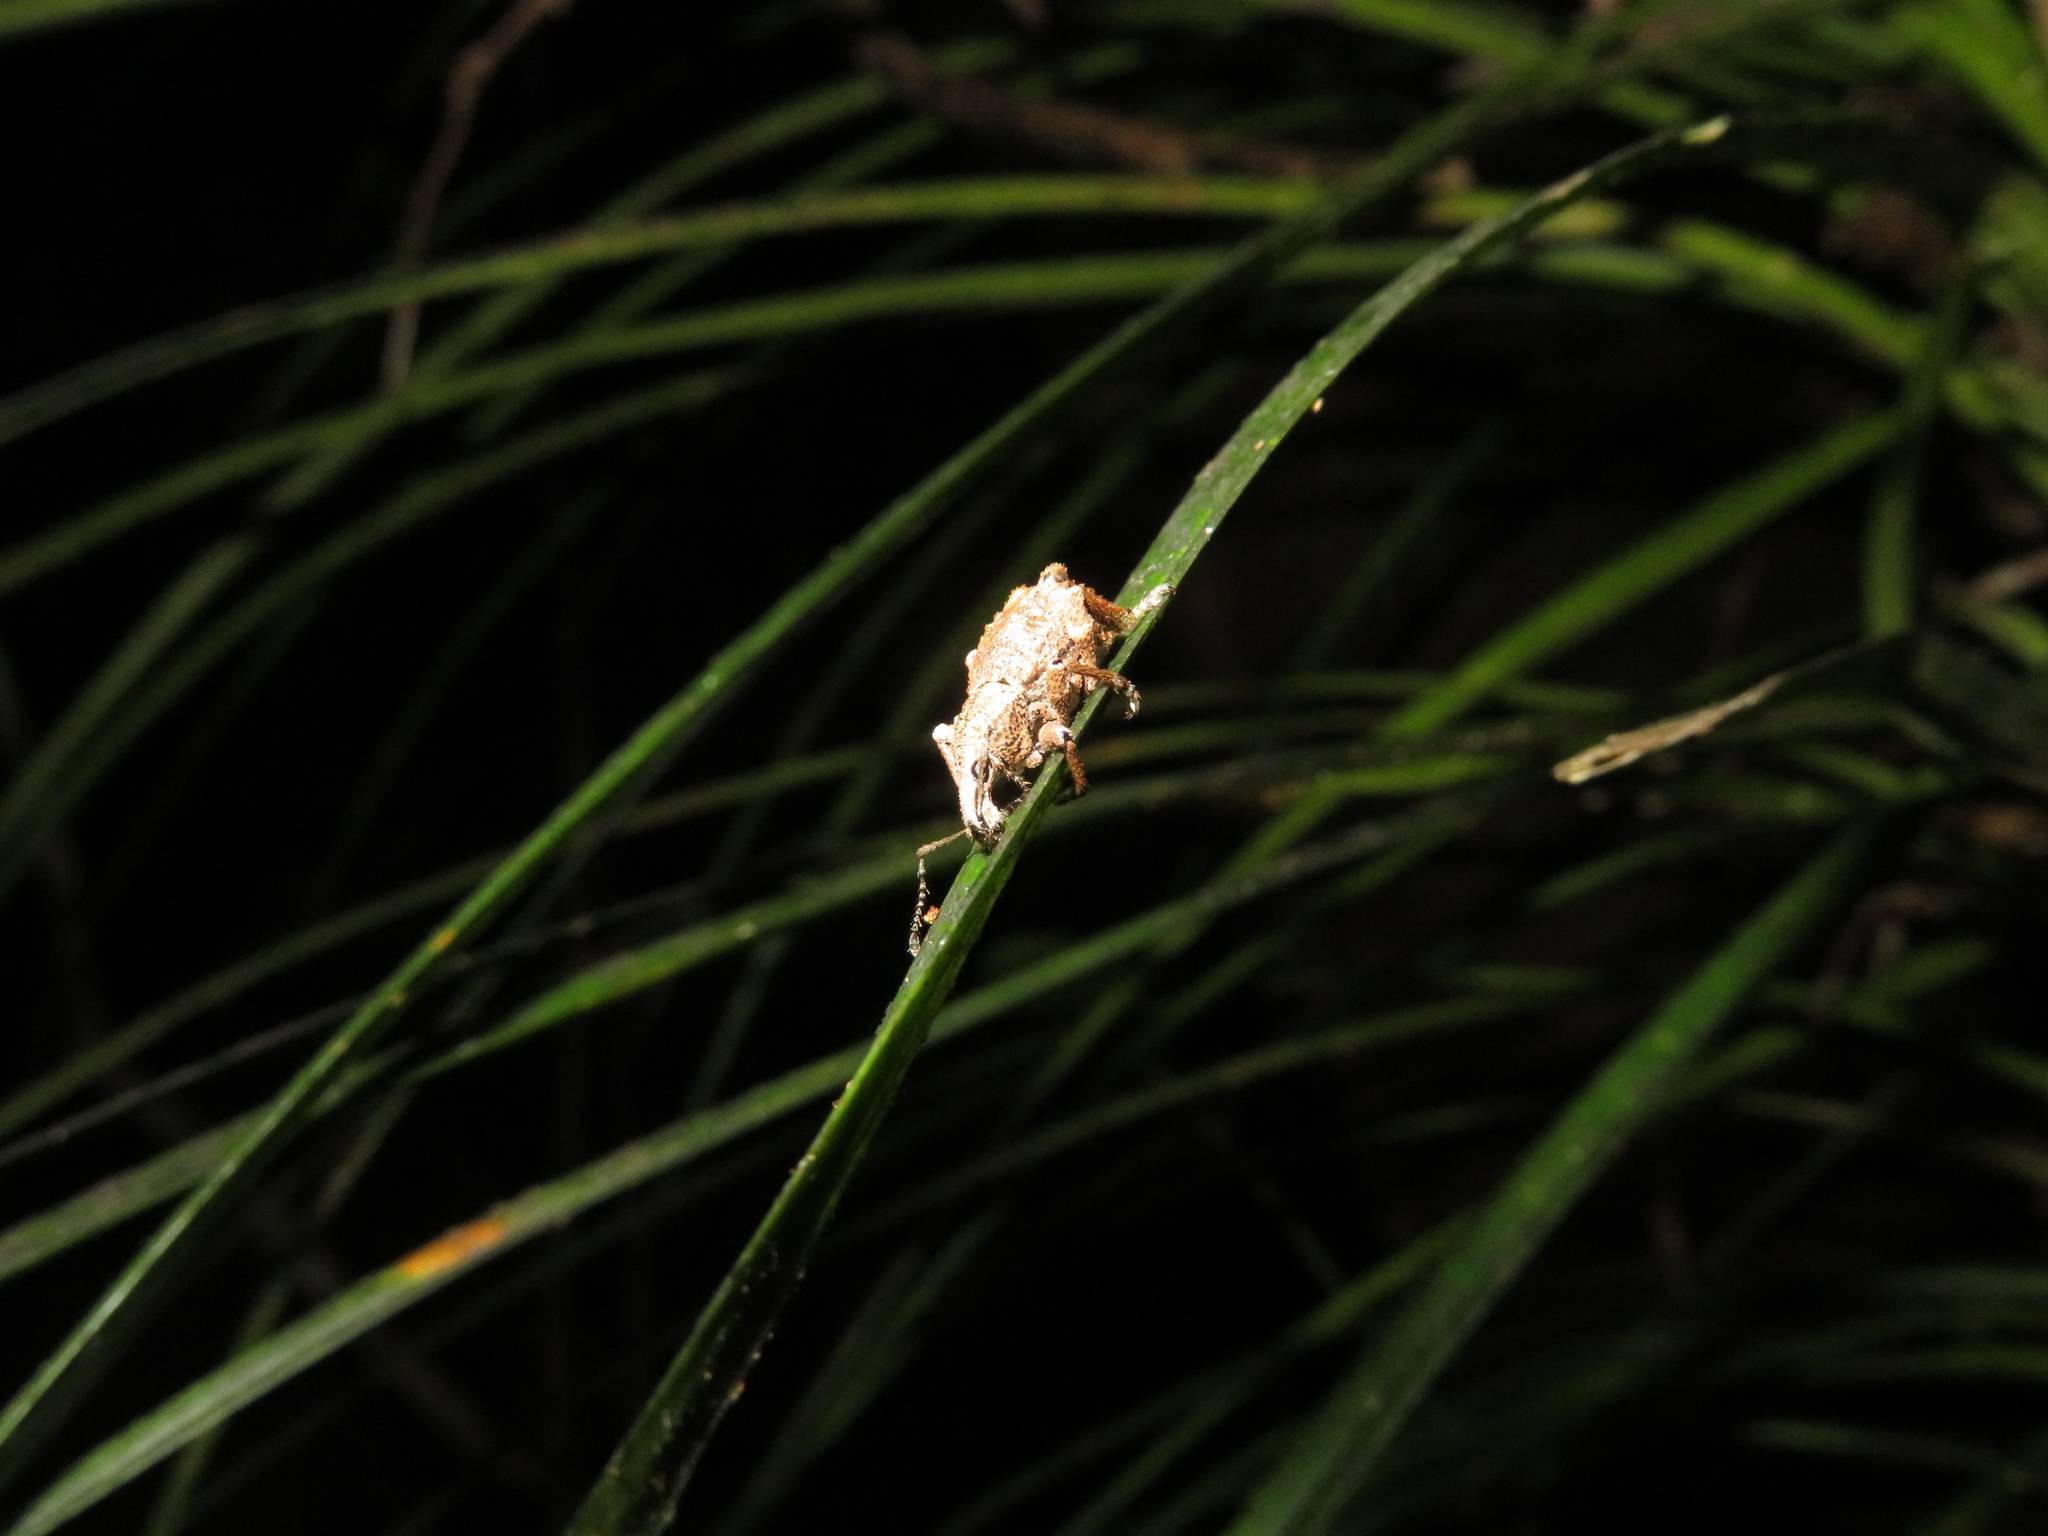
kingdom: Animalia
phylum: Arthropoda
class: Insecta
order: Coleoptera
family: Curculionidae
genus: Catoptes
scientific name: Catoptes binodis
